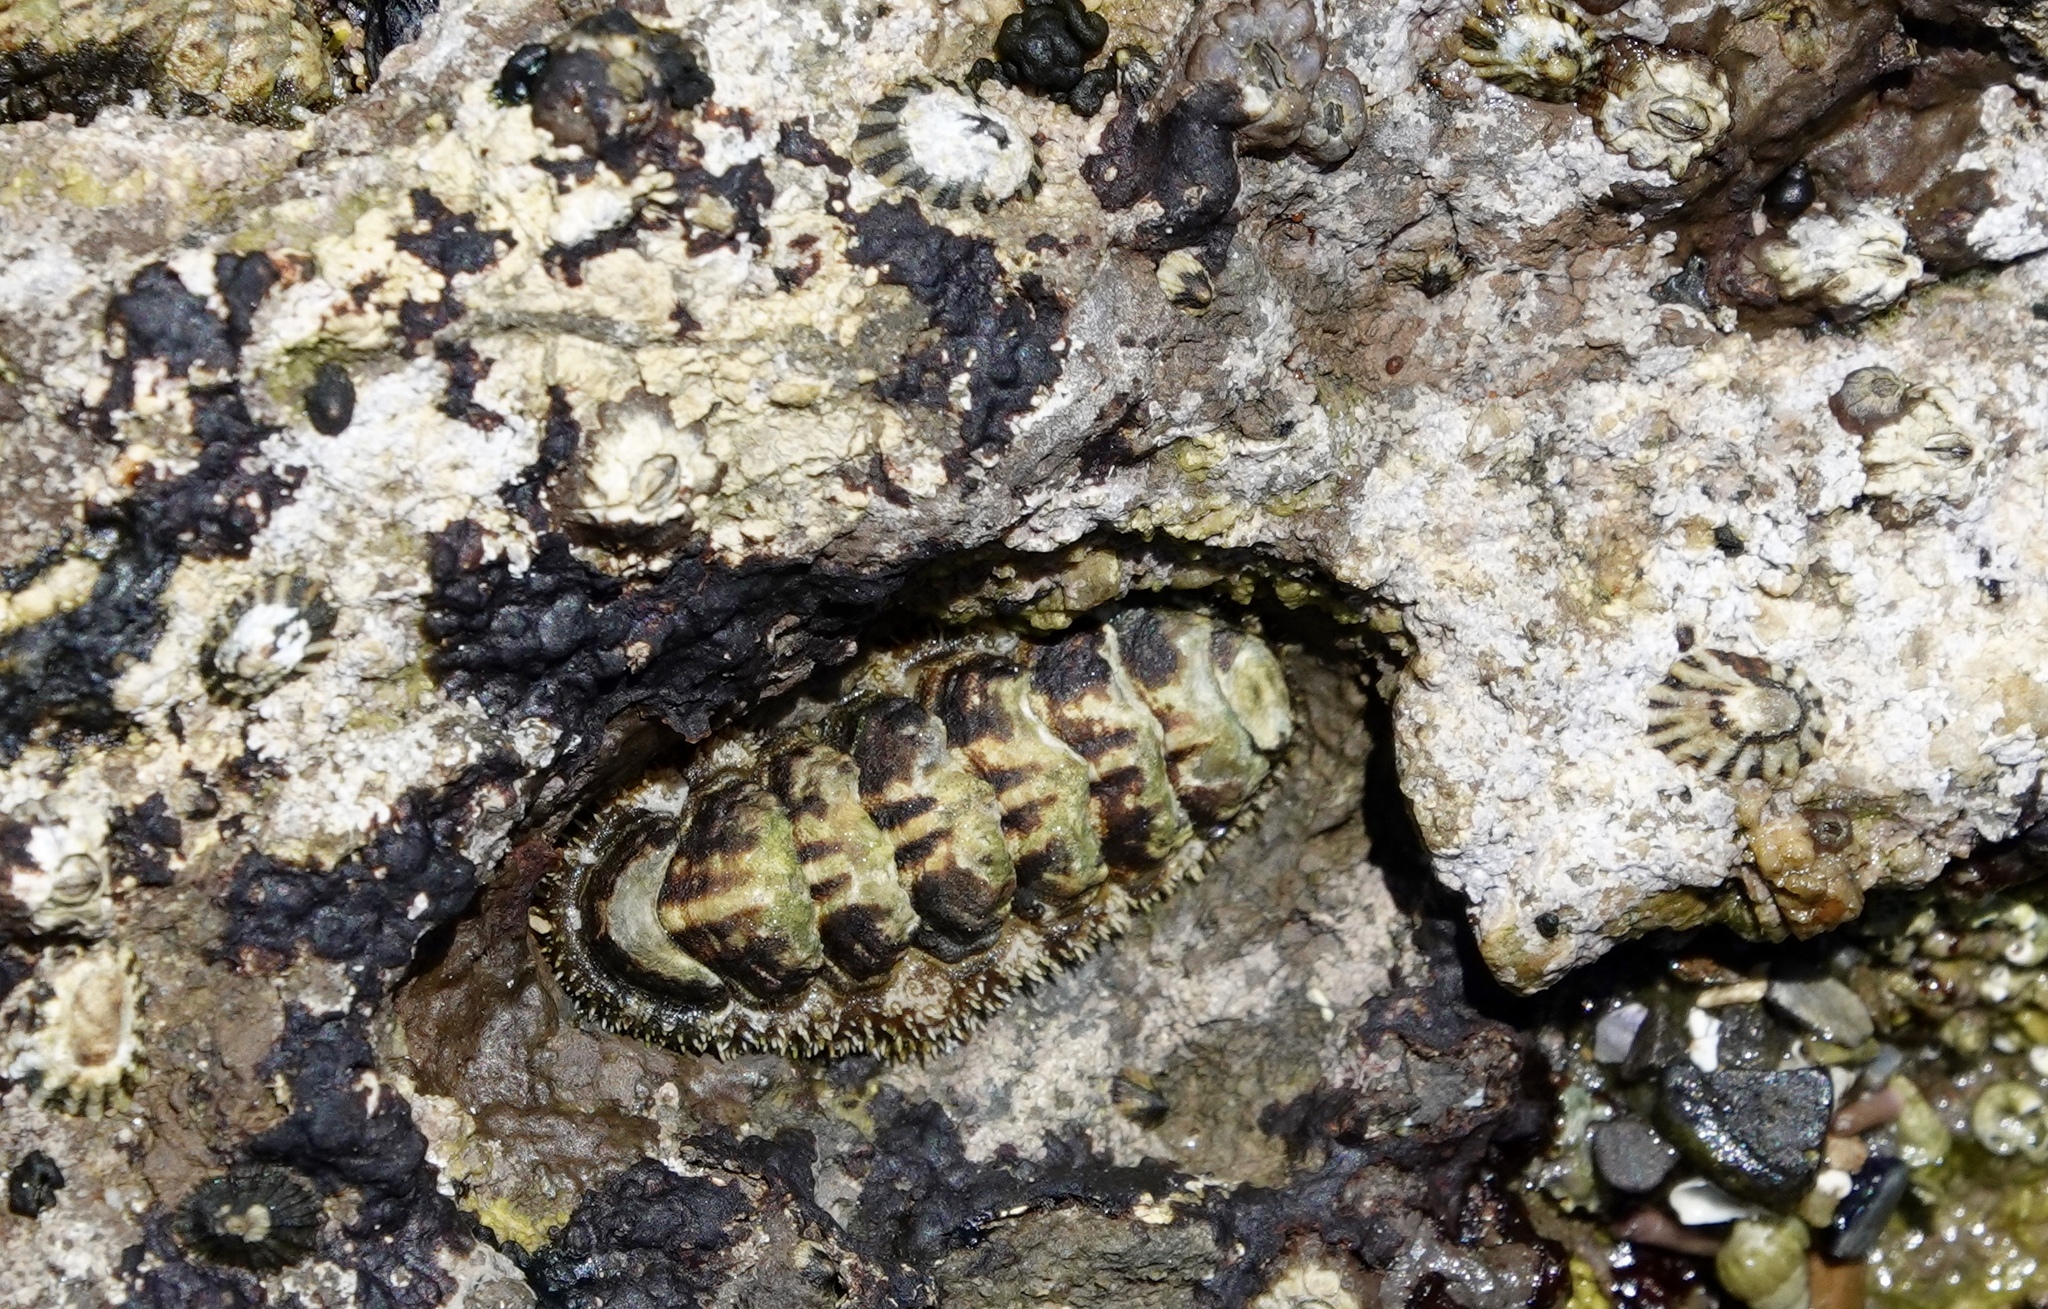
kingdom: Animalia
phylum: Mollusca
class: Polyplacophora
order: Chitonida
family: Tonicellidae
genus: Nuttallina
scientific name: Nuttallina californica
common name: California nuttall chiton
